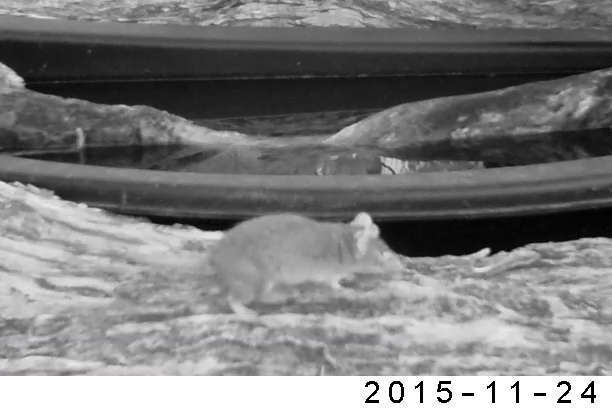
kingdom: Animalia
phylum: Chordata
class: Mammalia
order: Dasyuromorphia
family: Dasyuridae
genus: Antechinus
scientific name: Antechinus flavipes
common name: Yellow-footed antechinus
